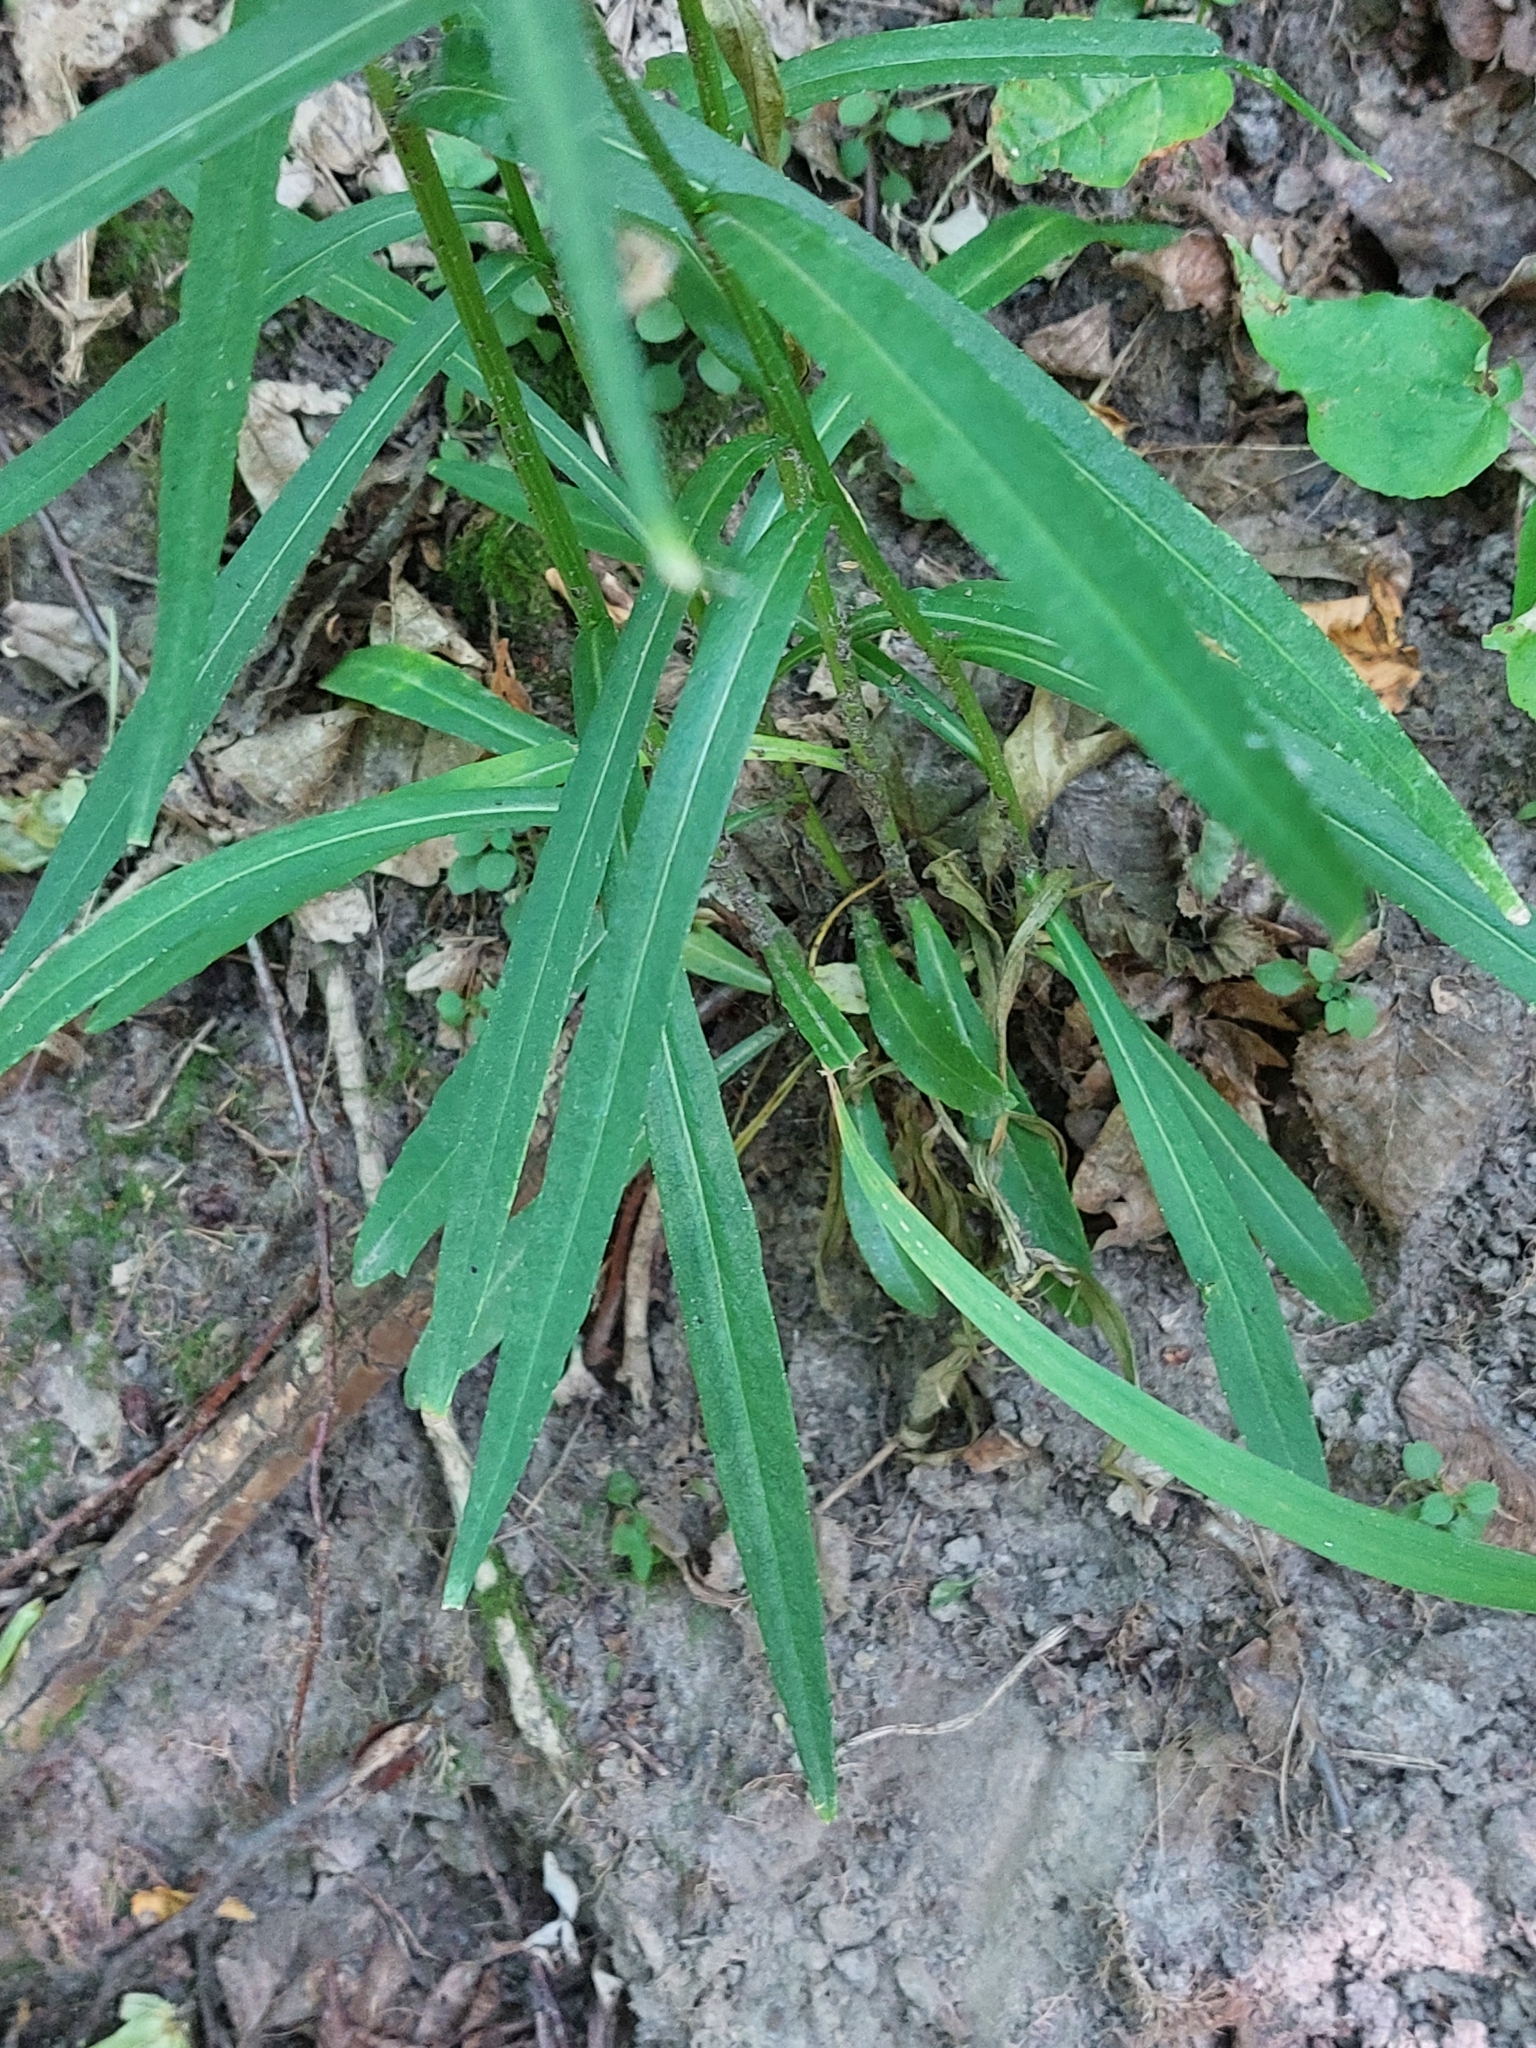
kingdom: Plantae
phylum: Tracheophyta
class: Magnoliopsida
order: Asterales
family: Campanulaceae
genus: Campanula
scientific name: Campanula persicifolia
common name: Peach-leaved bellflower
